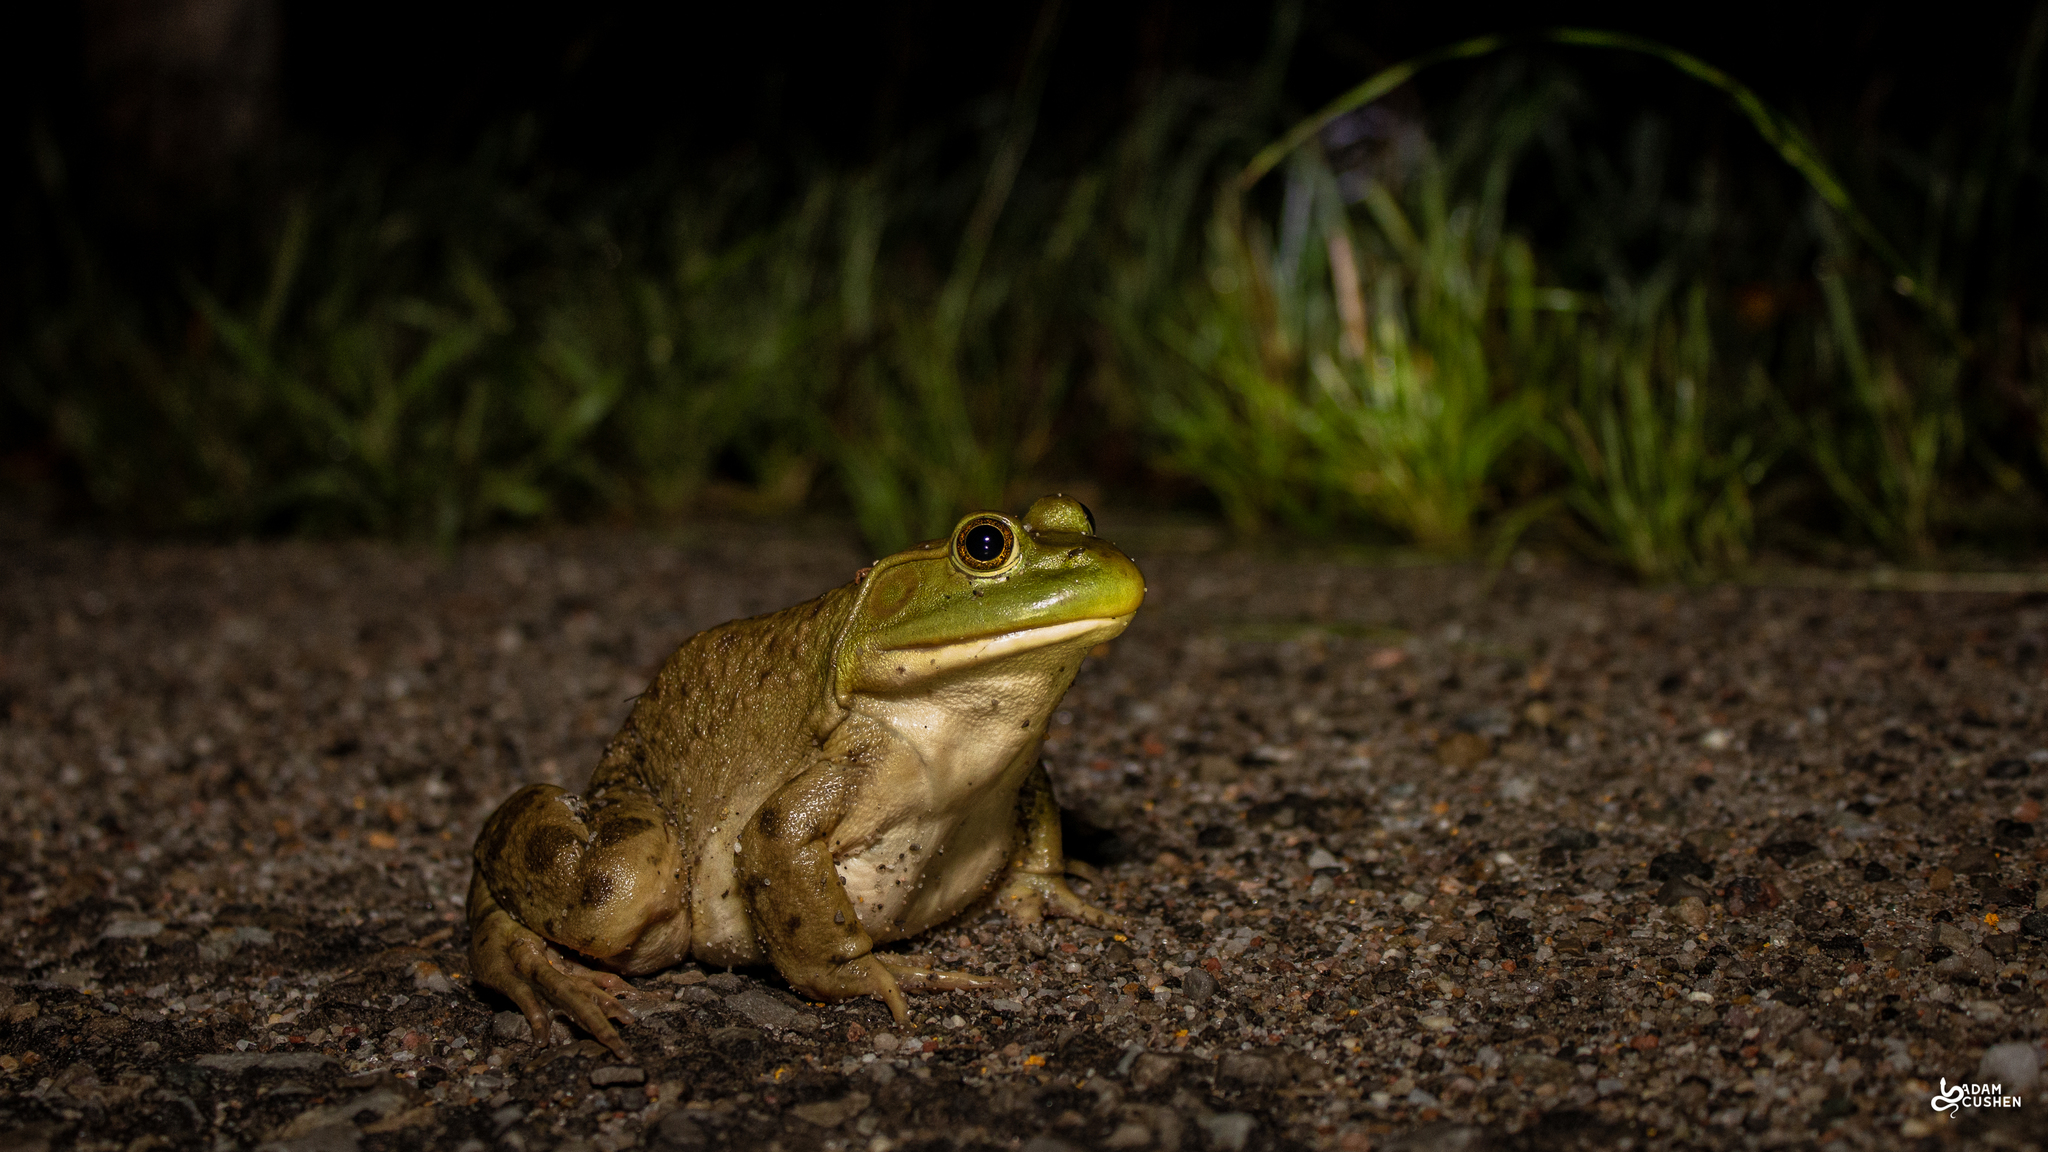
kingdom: Animalia
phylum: Chordata
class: Amphibia
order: Anura
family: Ranidae
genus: Lithobates
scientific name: Lithobates catesbeianus
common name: American bullfrog
